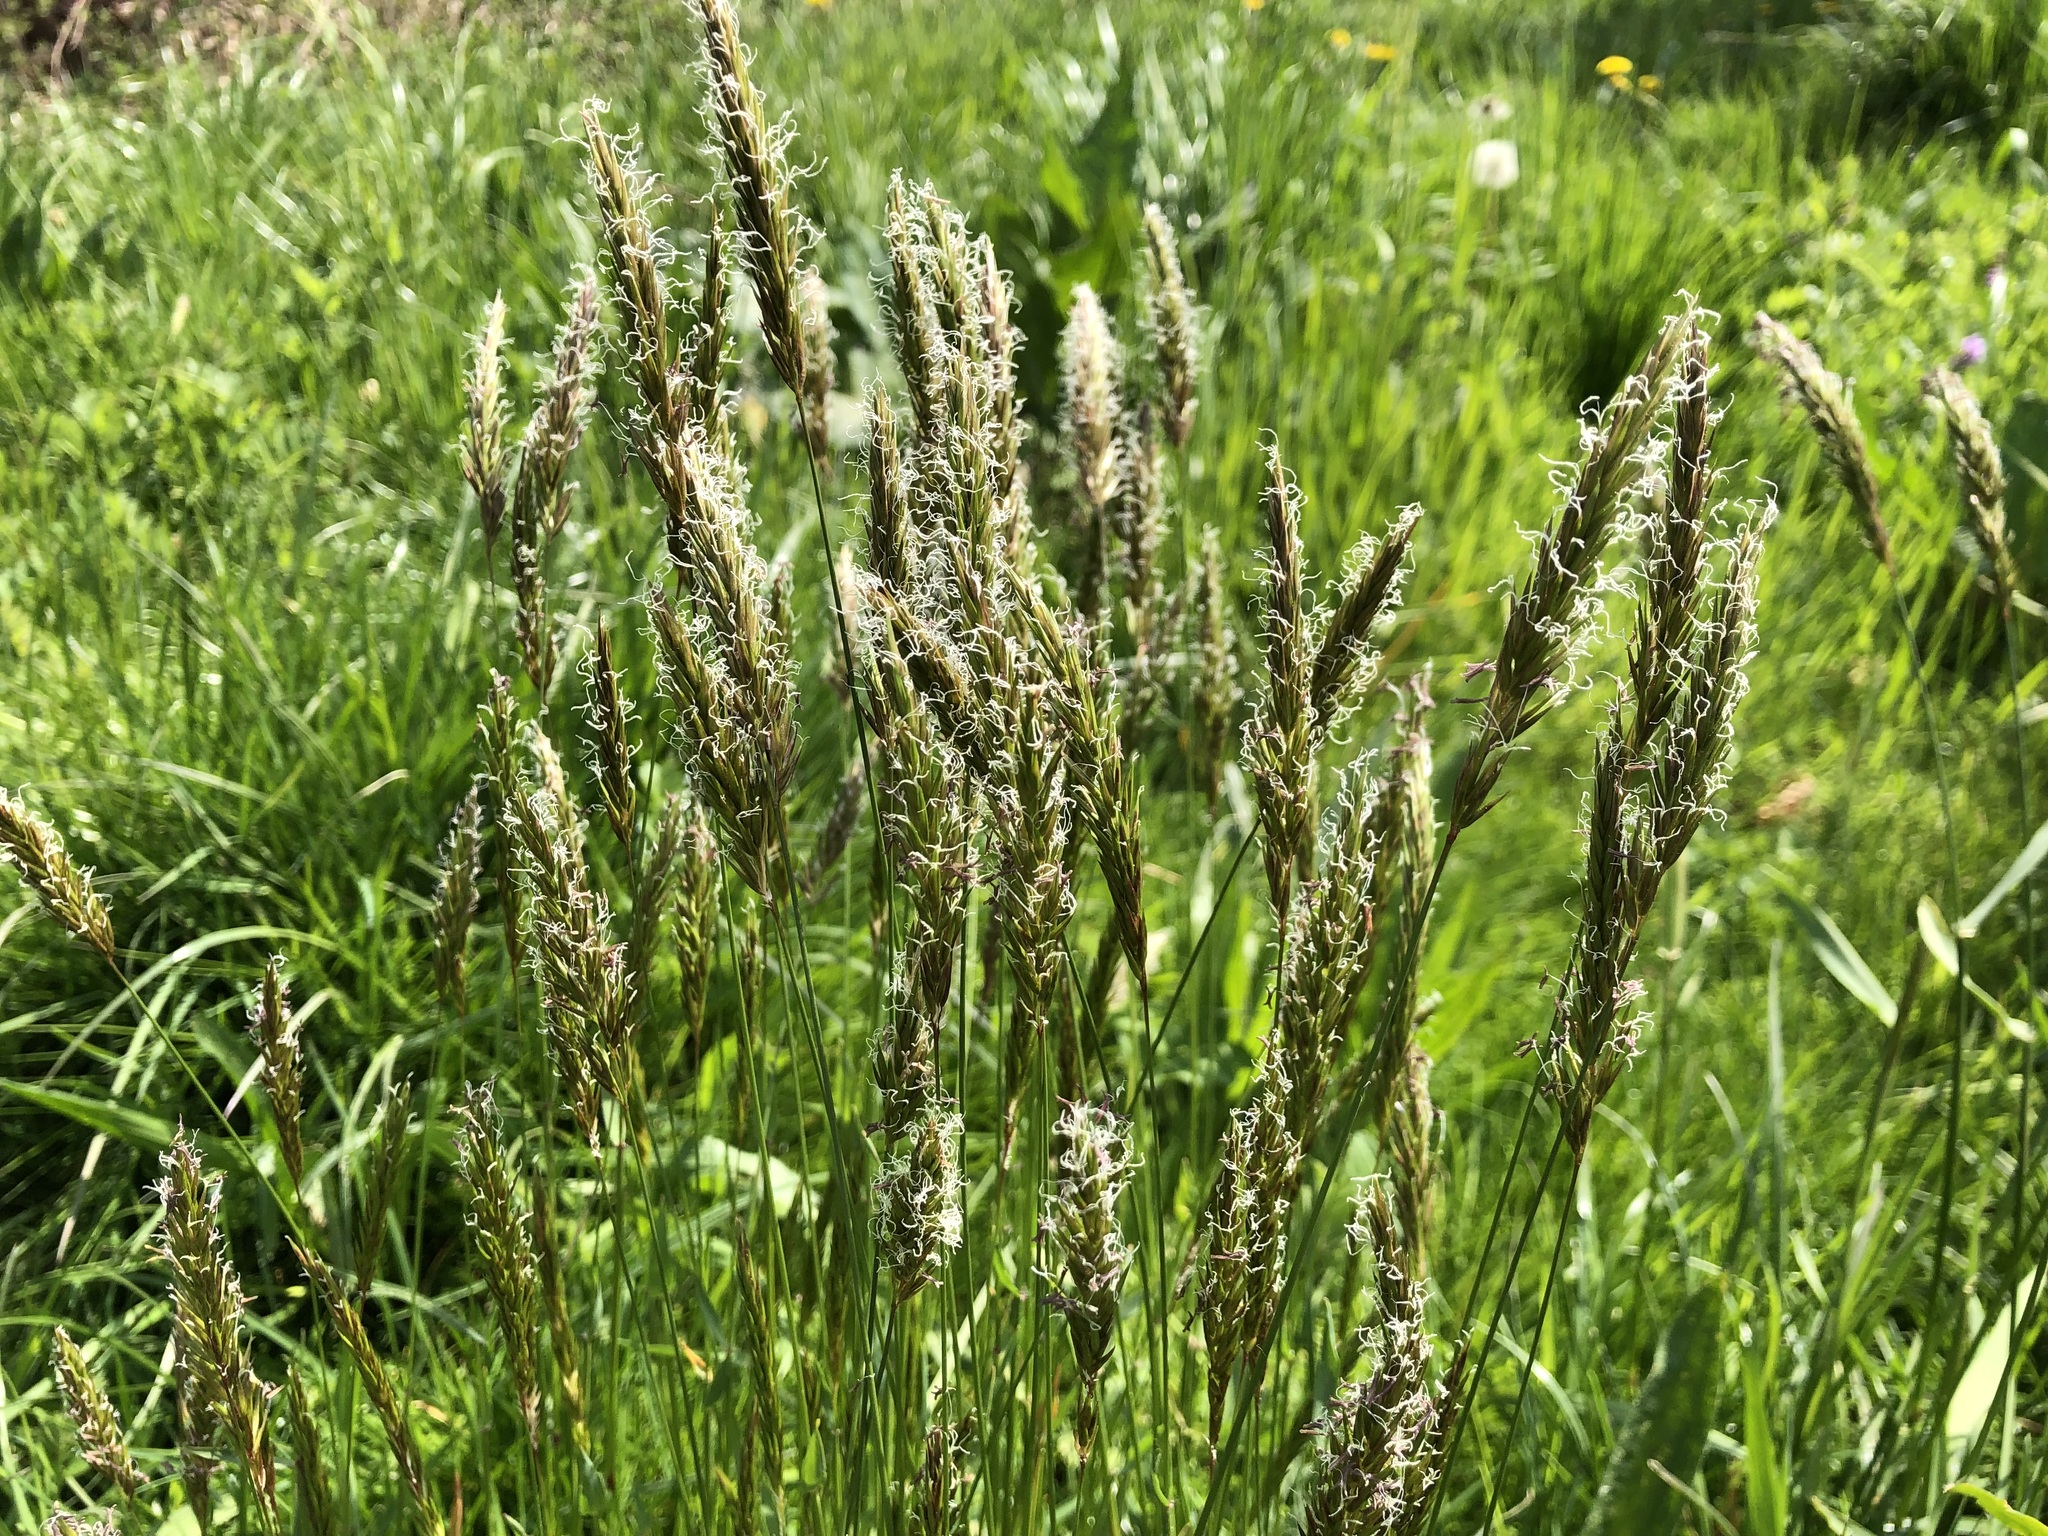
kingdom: Plantae
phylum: Tracheophyta
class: Liliopsida
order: Poales
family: Poaceae
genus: Anthoxanthum
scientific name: Anthoxanthum odoratum
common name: Sweet vernalgrass
